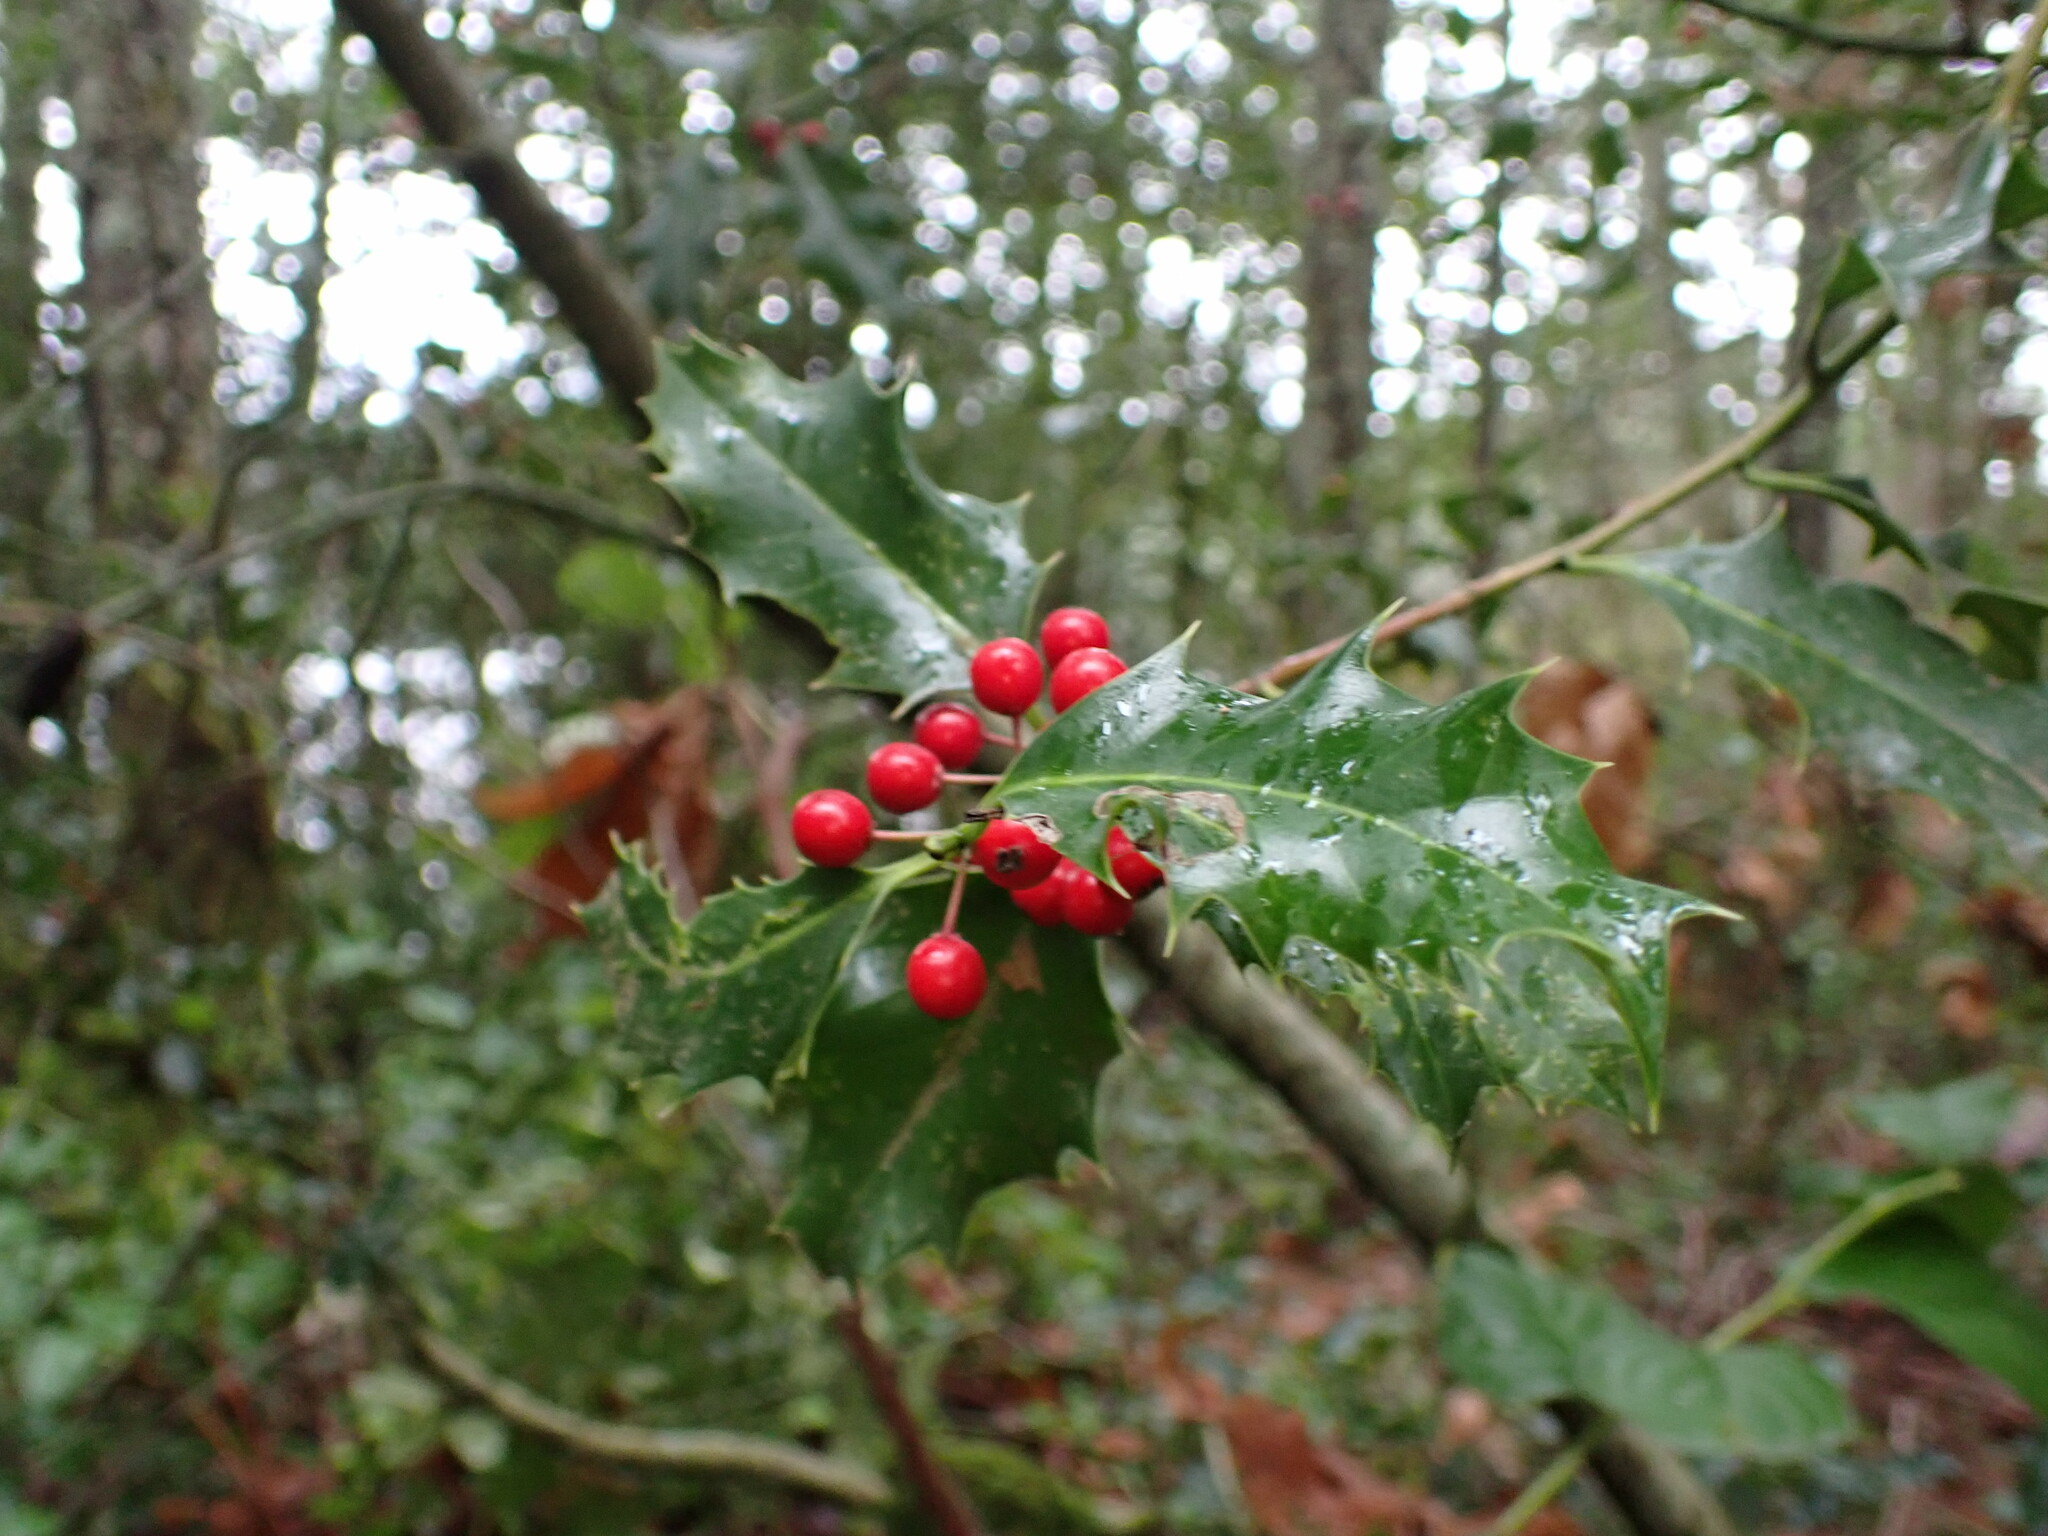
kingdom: Plantae
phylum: Tracheophyta
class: Magnoliopsida
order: Aquifoliales
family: Aquifoliaceae
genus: Ilex
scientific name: Ilex aquifolium
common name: English holly
